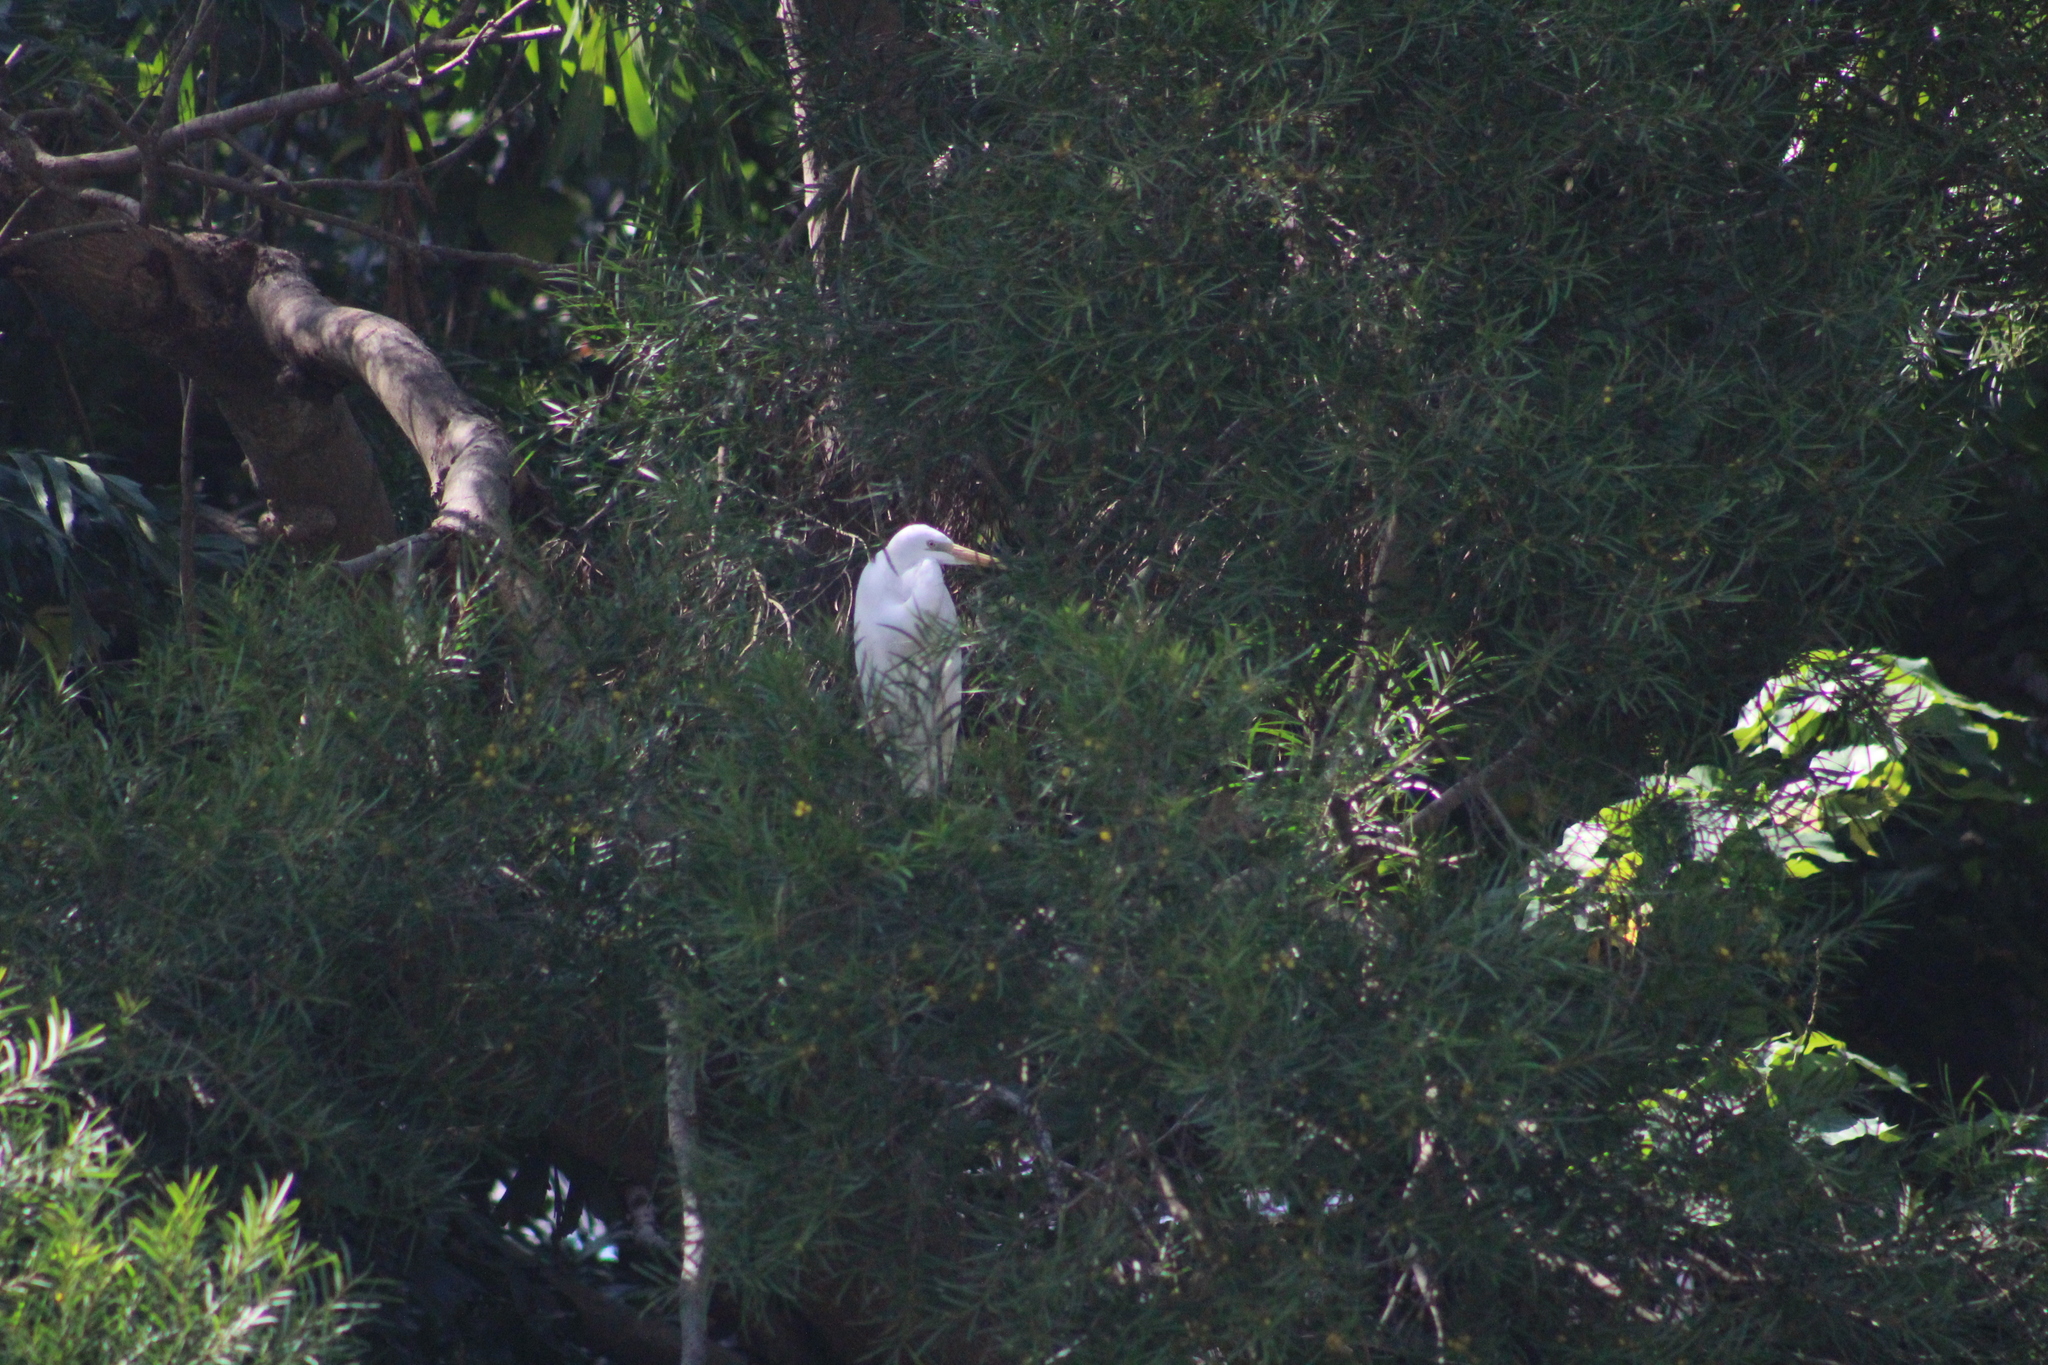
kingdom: Animalia
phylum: Chordata
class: Aves
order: Pelecaniformes
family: Ardeidae
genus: Ardea
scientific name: Ardea modesta
